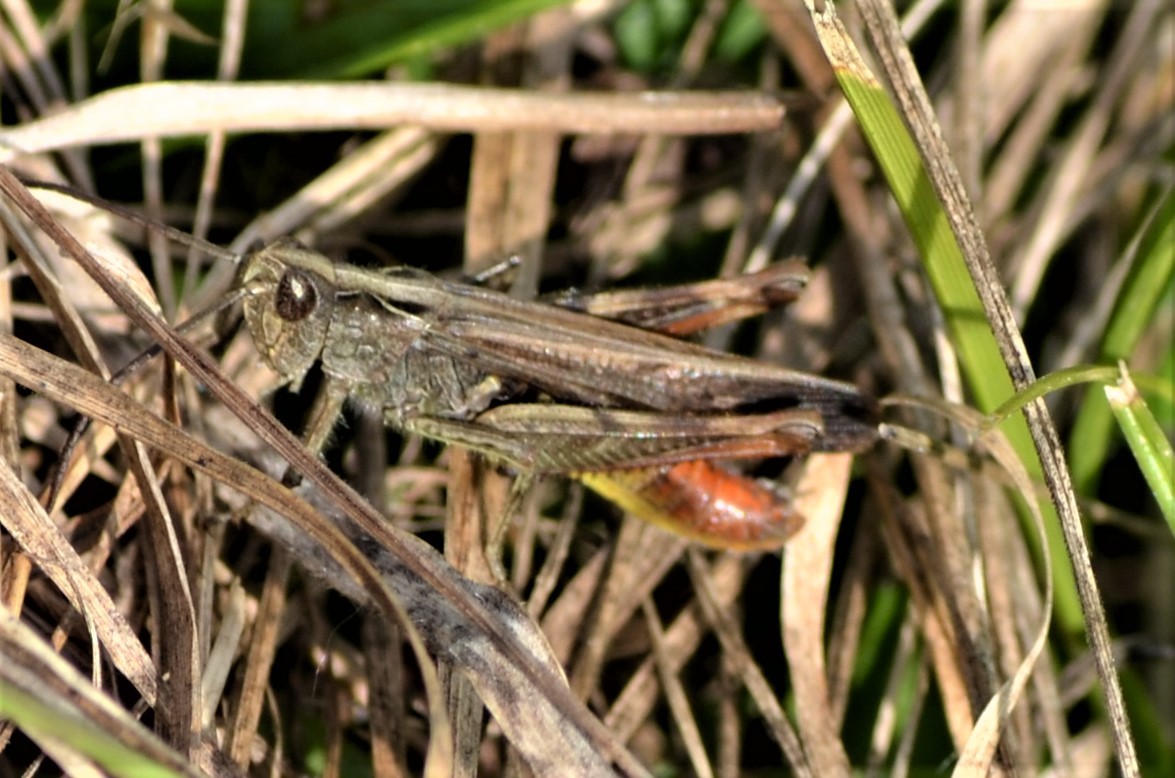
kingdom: Animalia
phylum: Arthropoda
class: Insecta
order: Orthoptera
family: Acrididae
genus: Chorthippus
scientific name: Chorthippus biguttulus
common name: Bow-winged grasshopper
